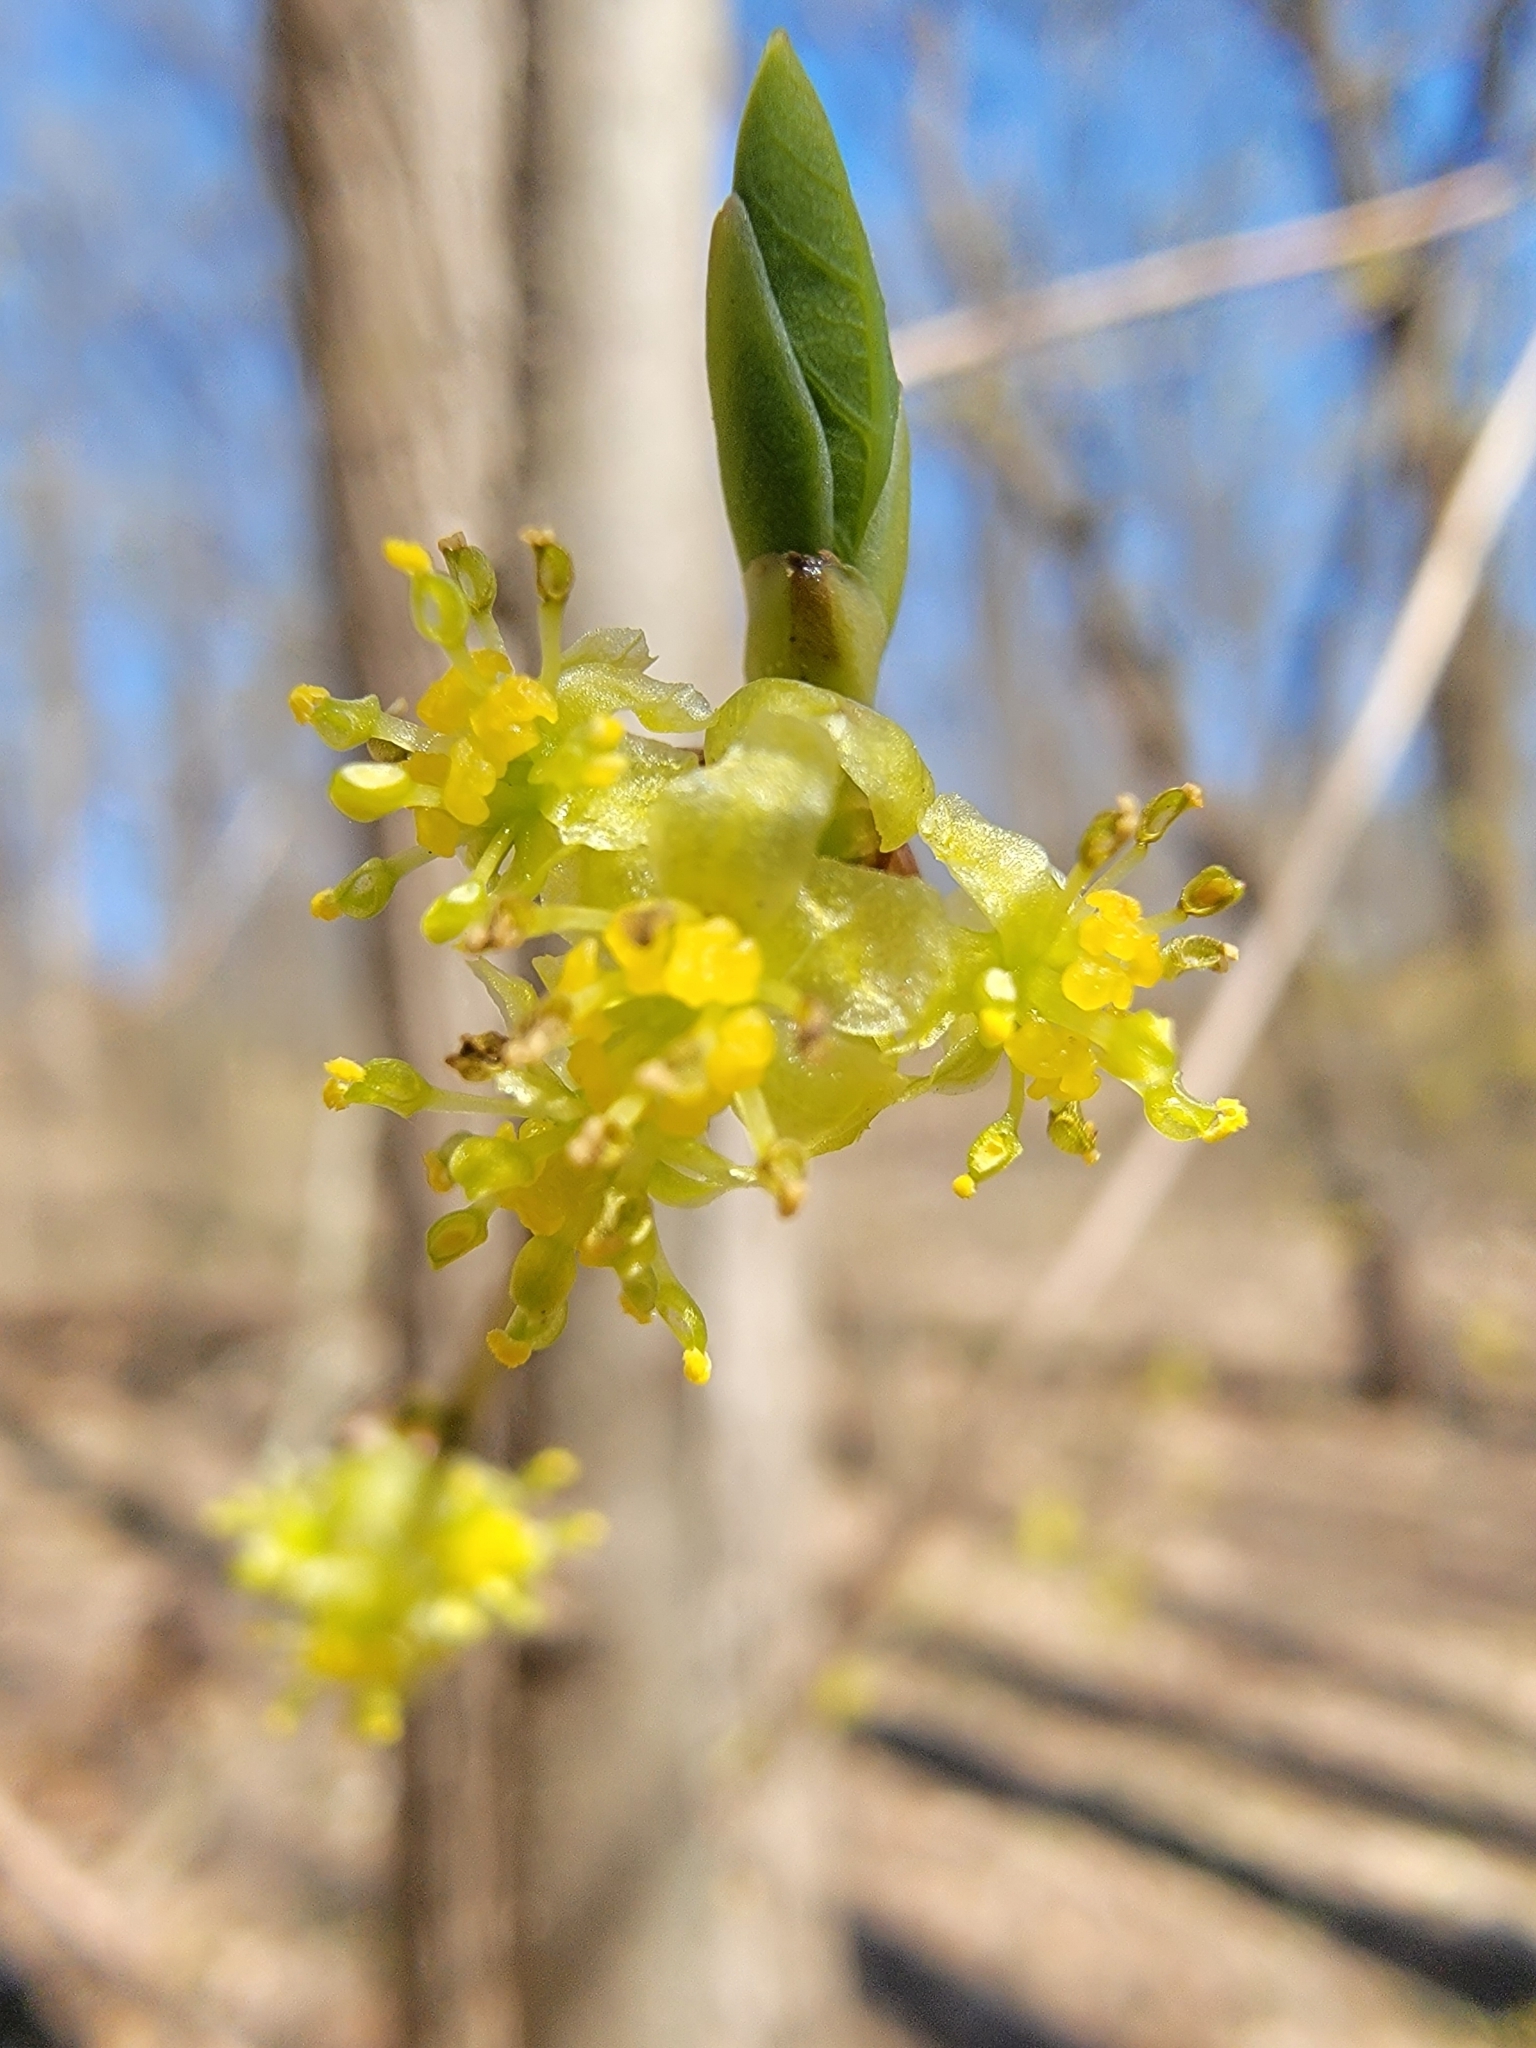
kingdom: Plantae
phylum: Tracheophyta
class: Magnoliopsida
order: Laurales
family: Lauraceae
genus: Lindera
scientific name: Lindera benzoin
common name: Spicebush
